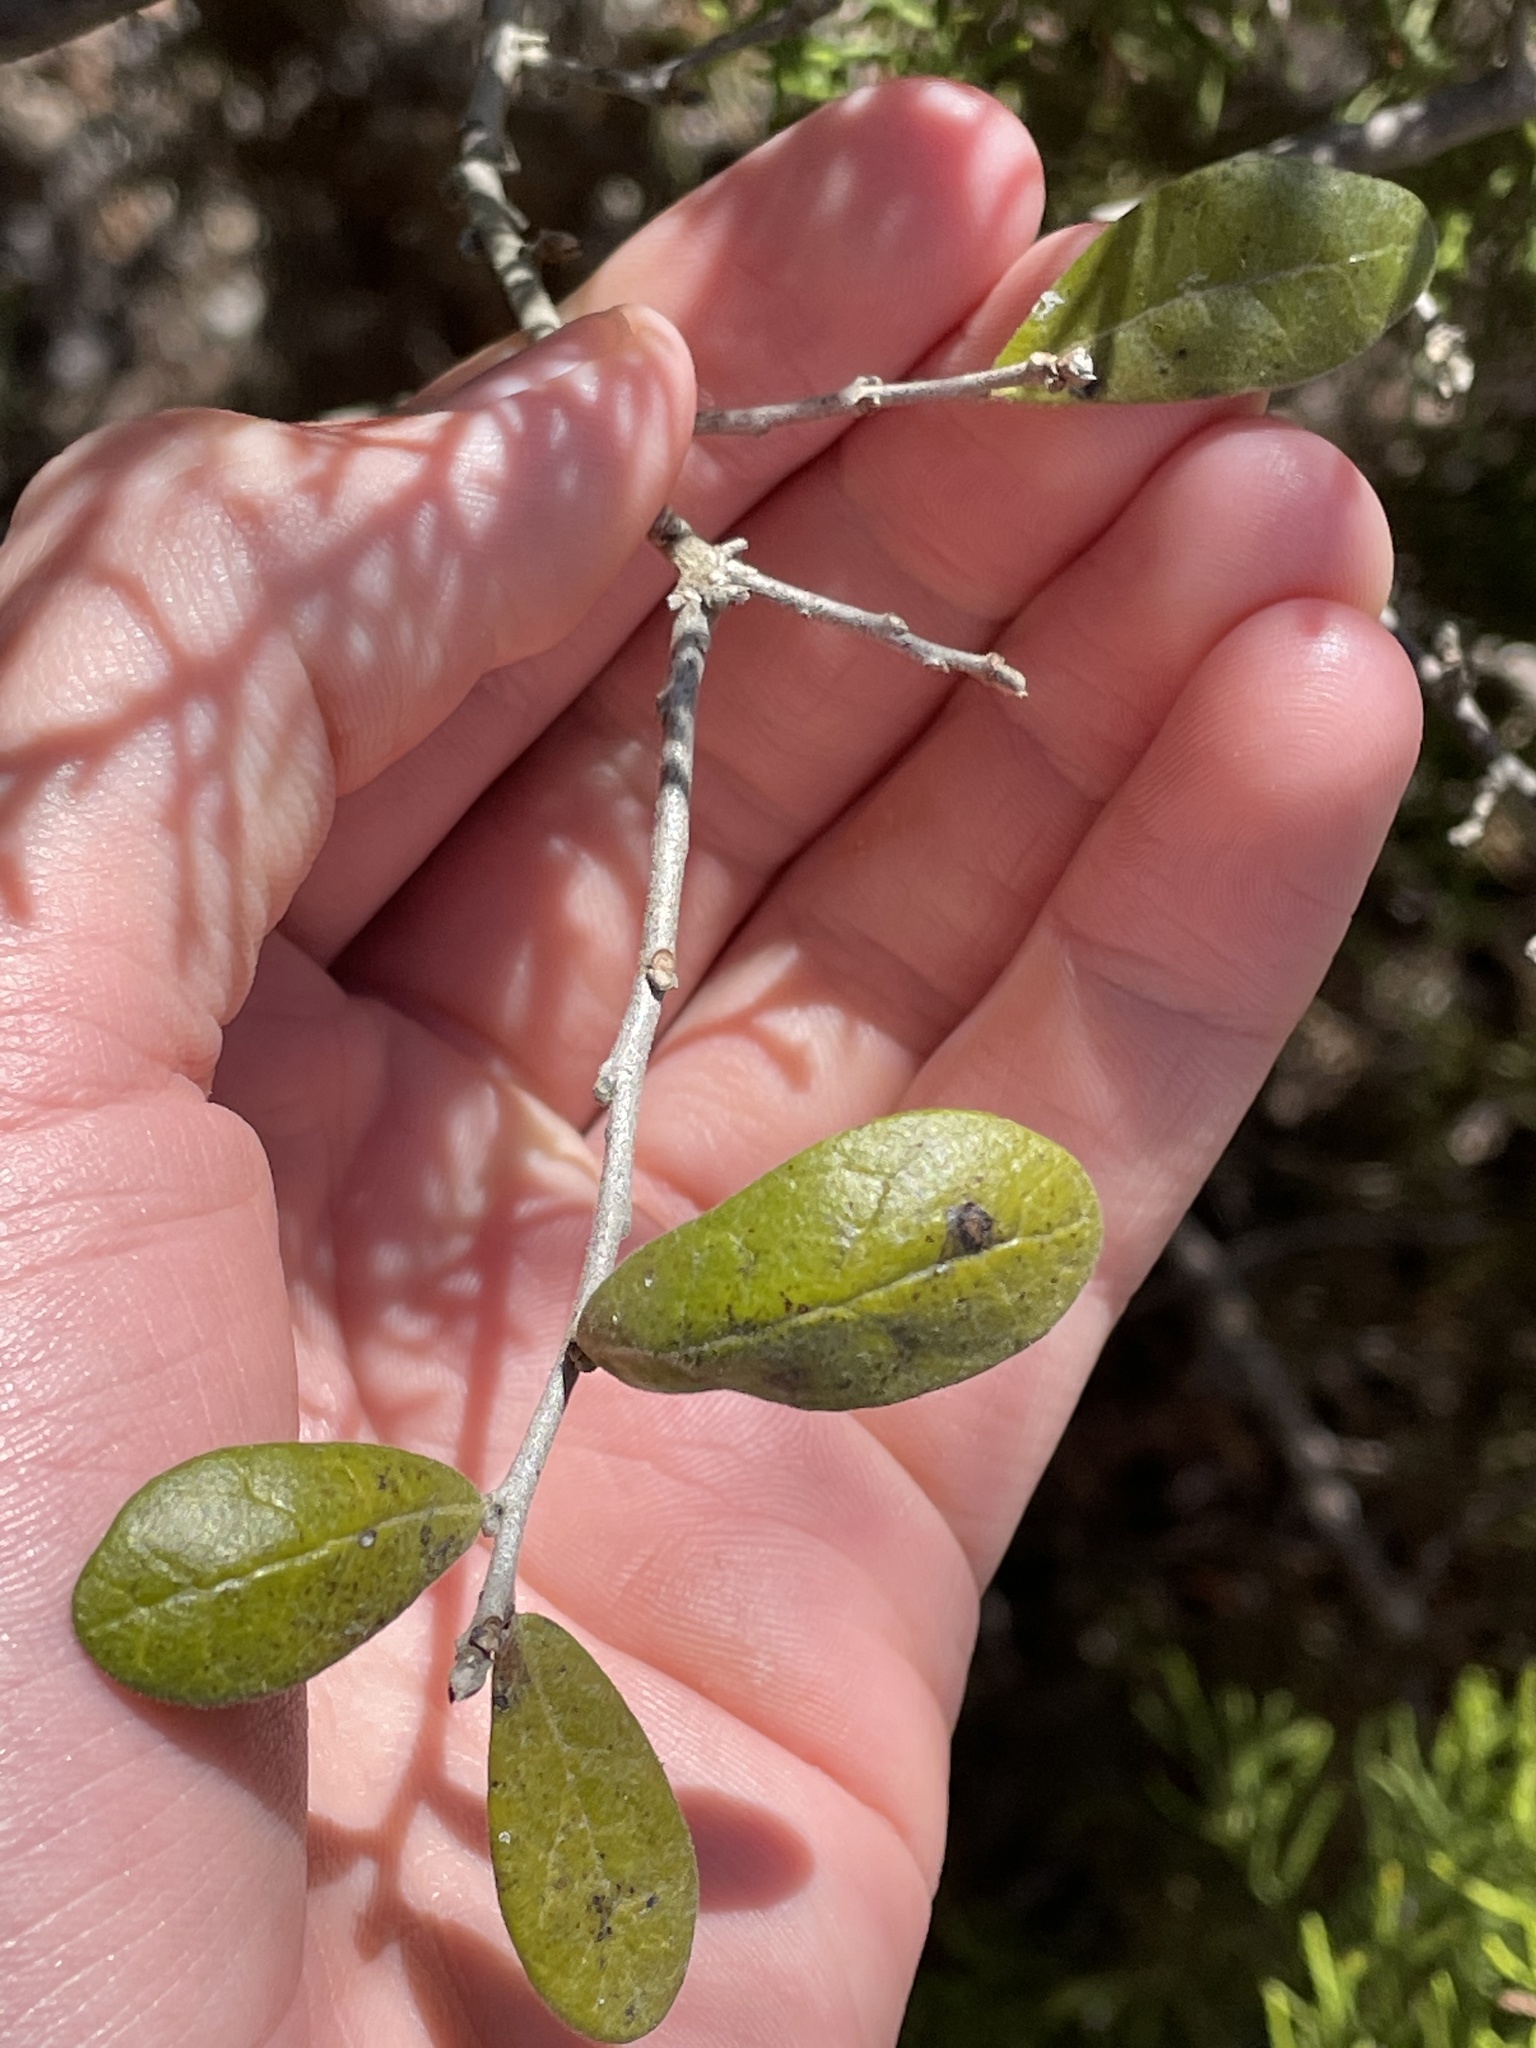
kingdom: Plantae
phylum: Tracheophyta
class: Magnoliopsida
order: Ericales
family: Ebenaceae
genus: Diospyros
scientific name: Diospyros texana
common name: Texas persimmon
